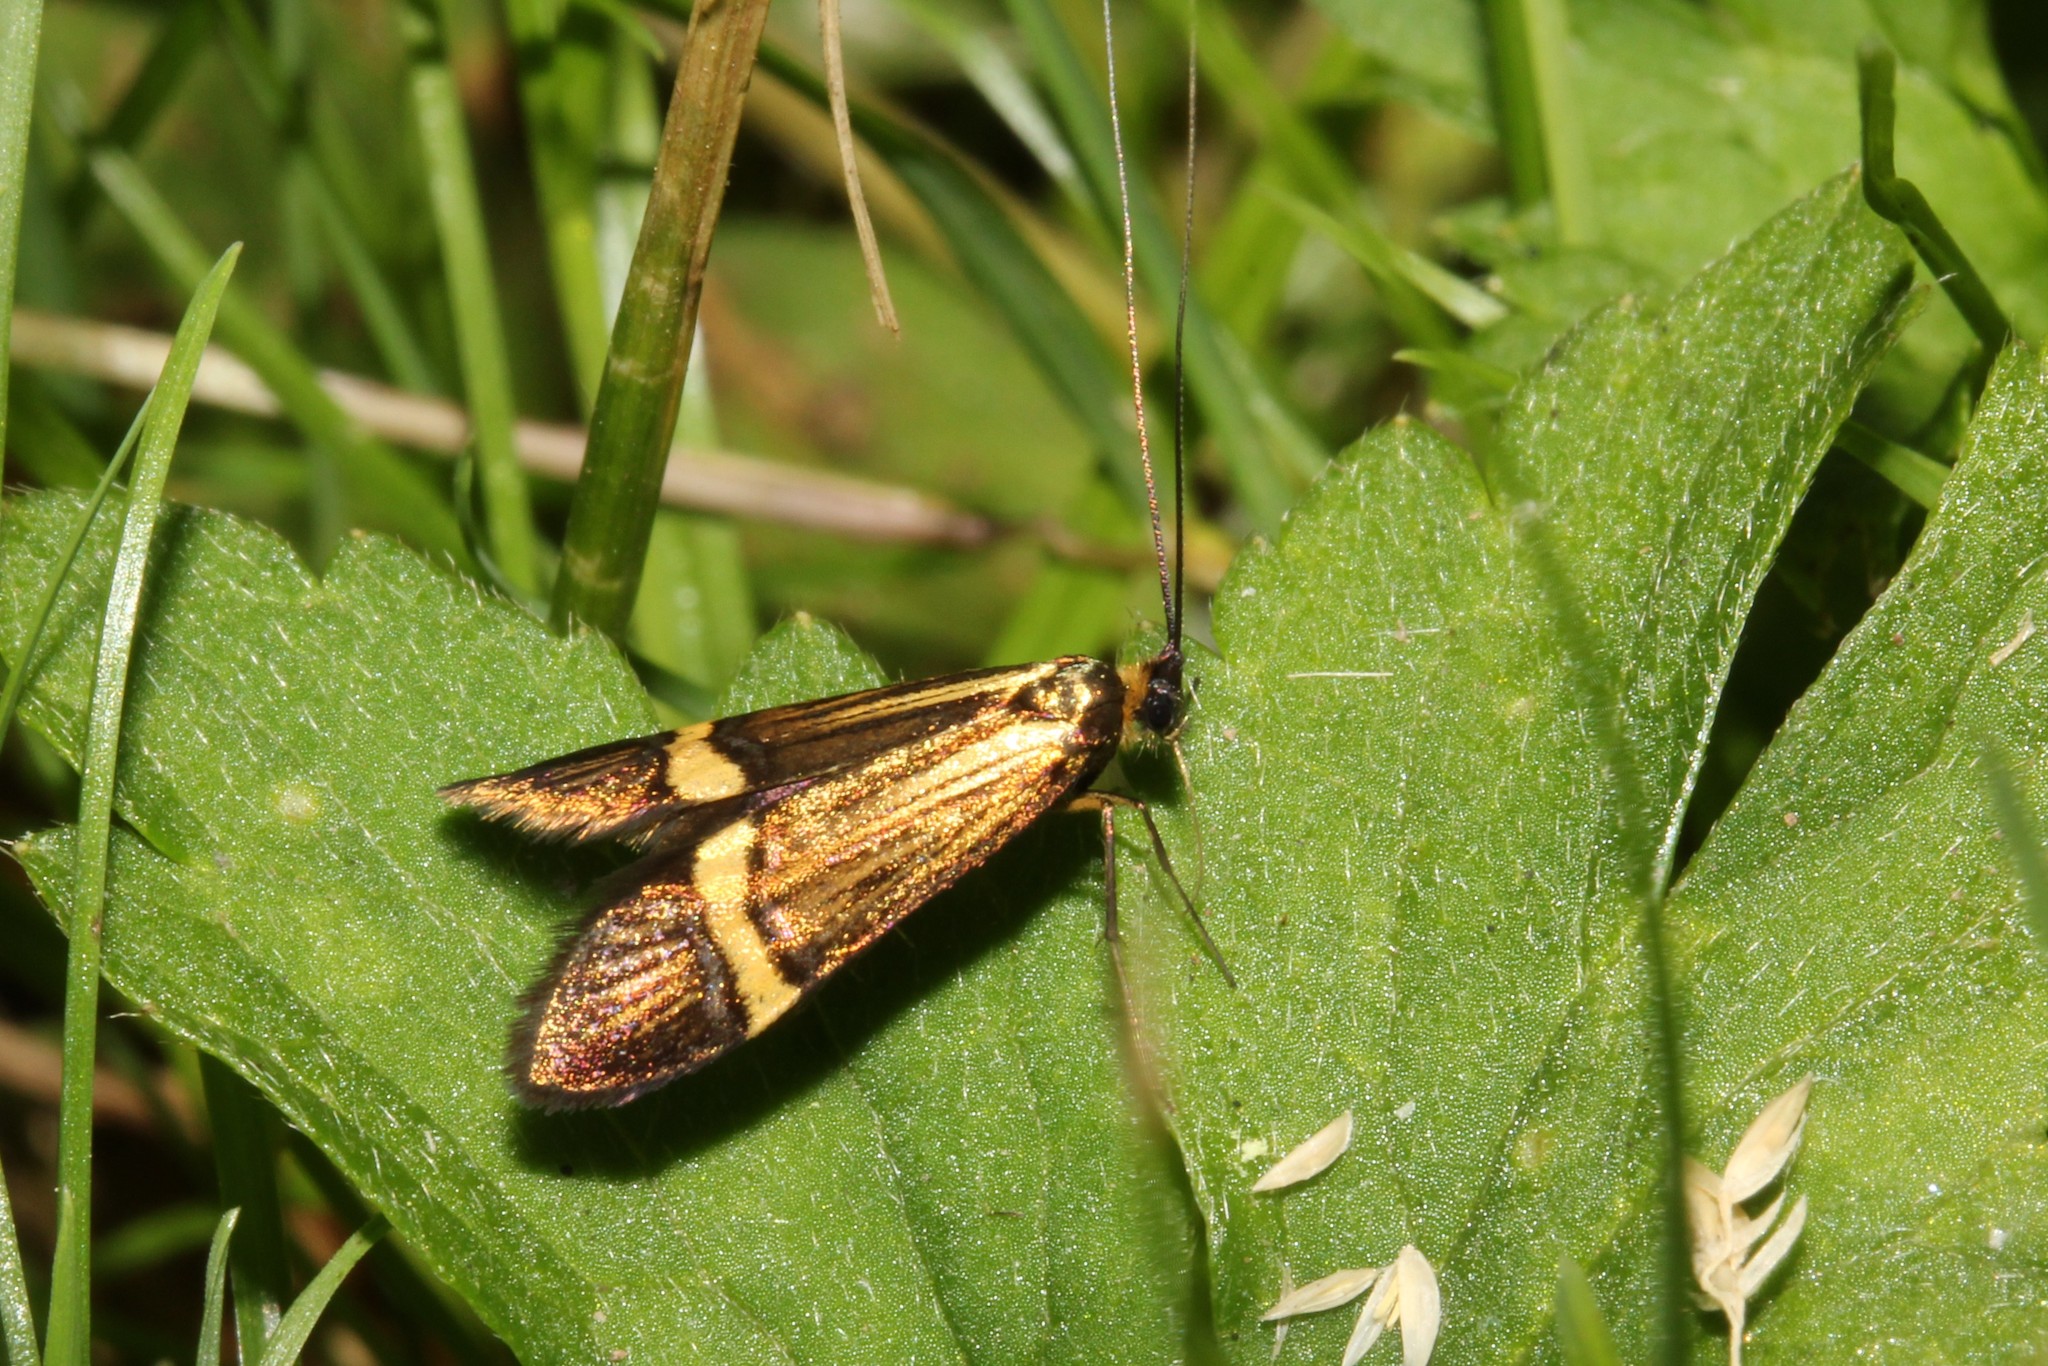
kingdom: Animalia
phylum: Arthropoda
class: Insecta
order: Lepidoptera
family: Adelidae
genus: Nemophora
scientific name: Nemophora degeerella
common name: Yellow-barred long-horn
